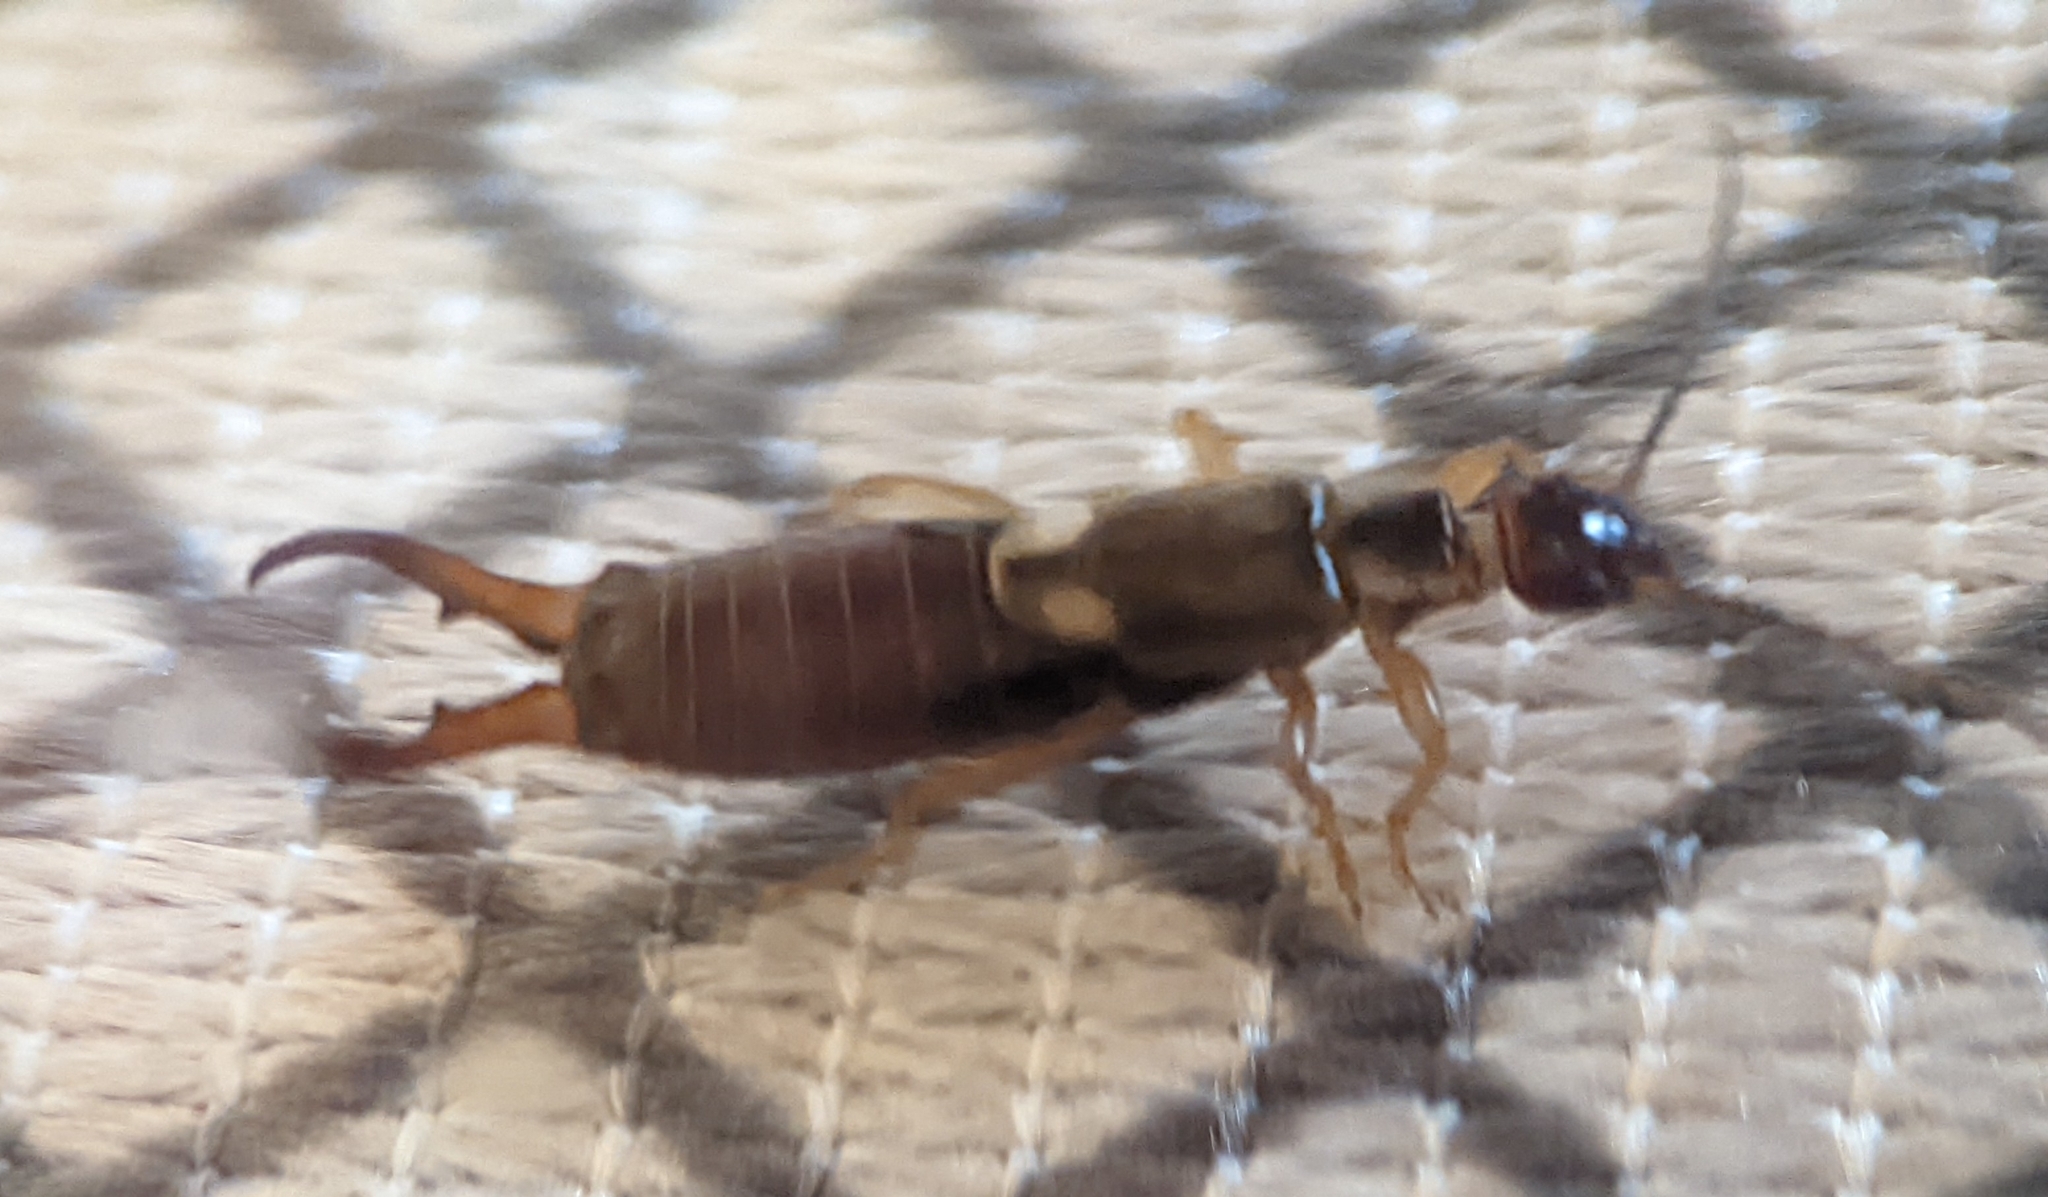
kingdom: Animalia
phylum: Arthropoda
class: Insecta
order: Dermaptera
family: Forficulidae
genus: Forficula
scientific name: Forficula
